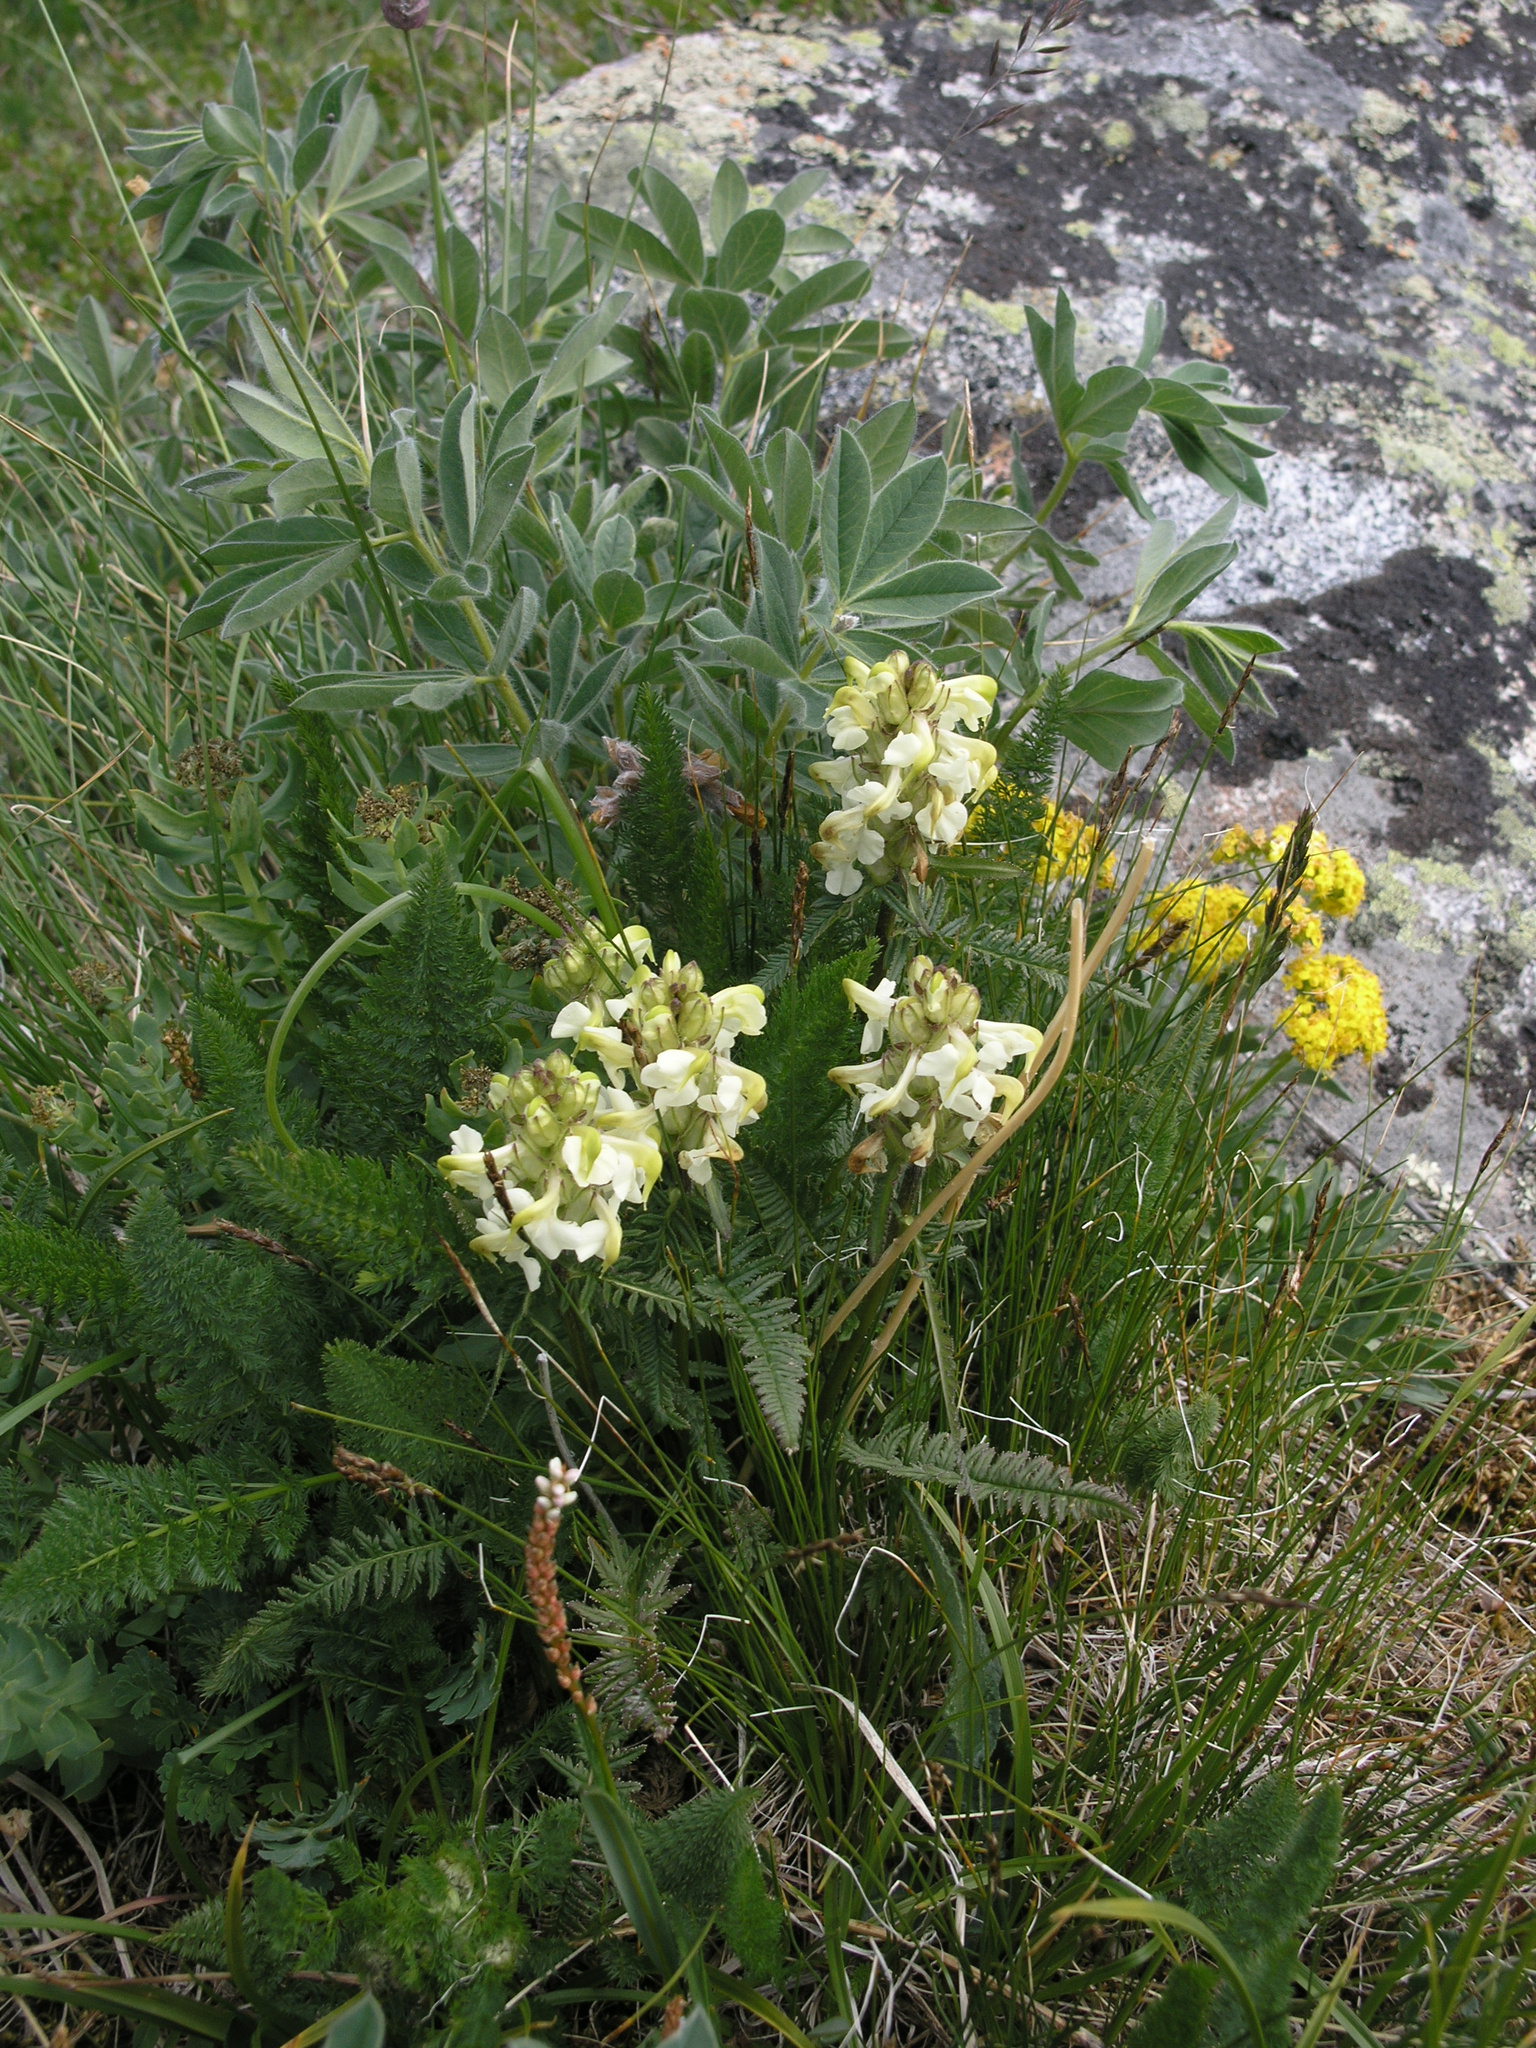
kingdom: Plantae
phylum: Tracheophyta
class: Magnoliopsida
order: Lamiales
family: Orobanchaceae
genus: Pedicularis
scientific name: Pedicularis compacta
